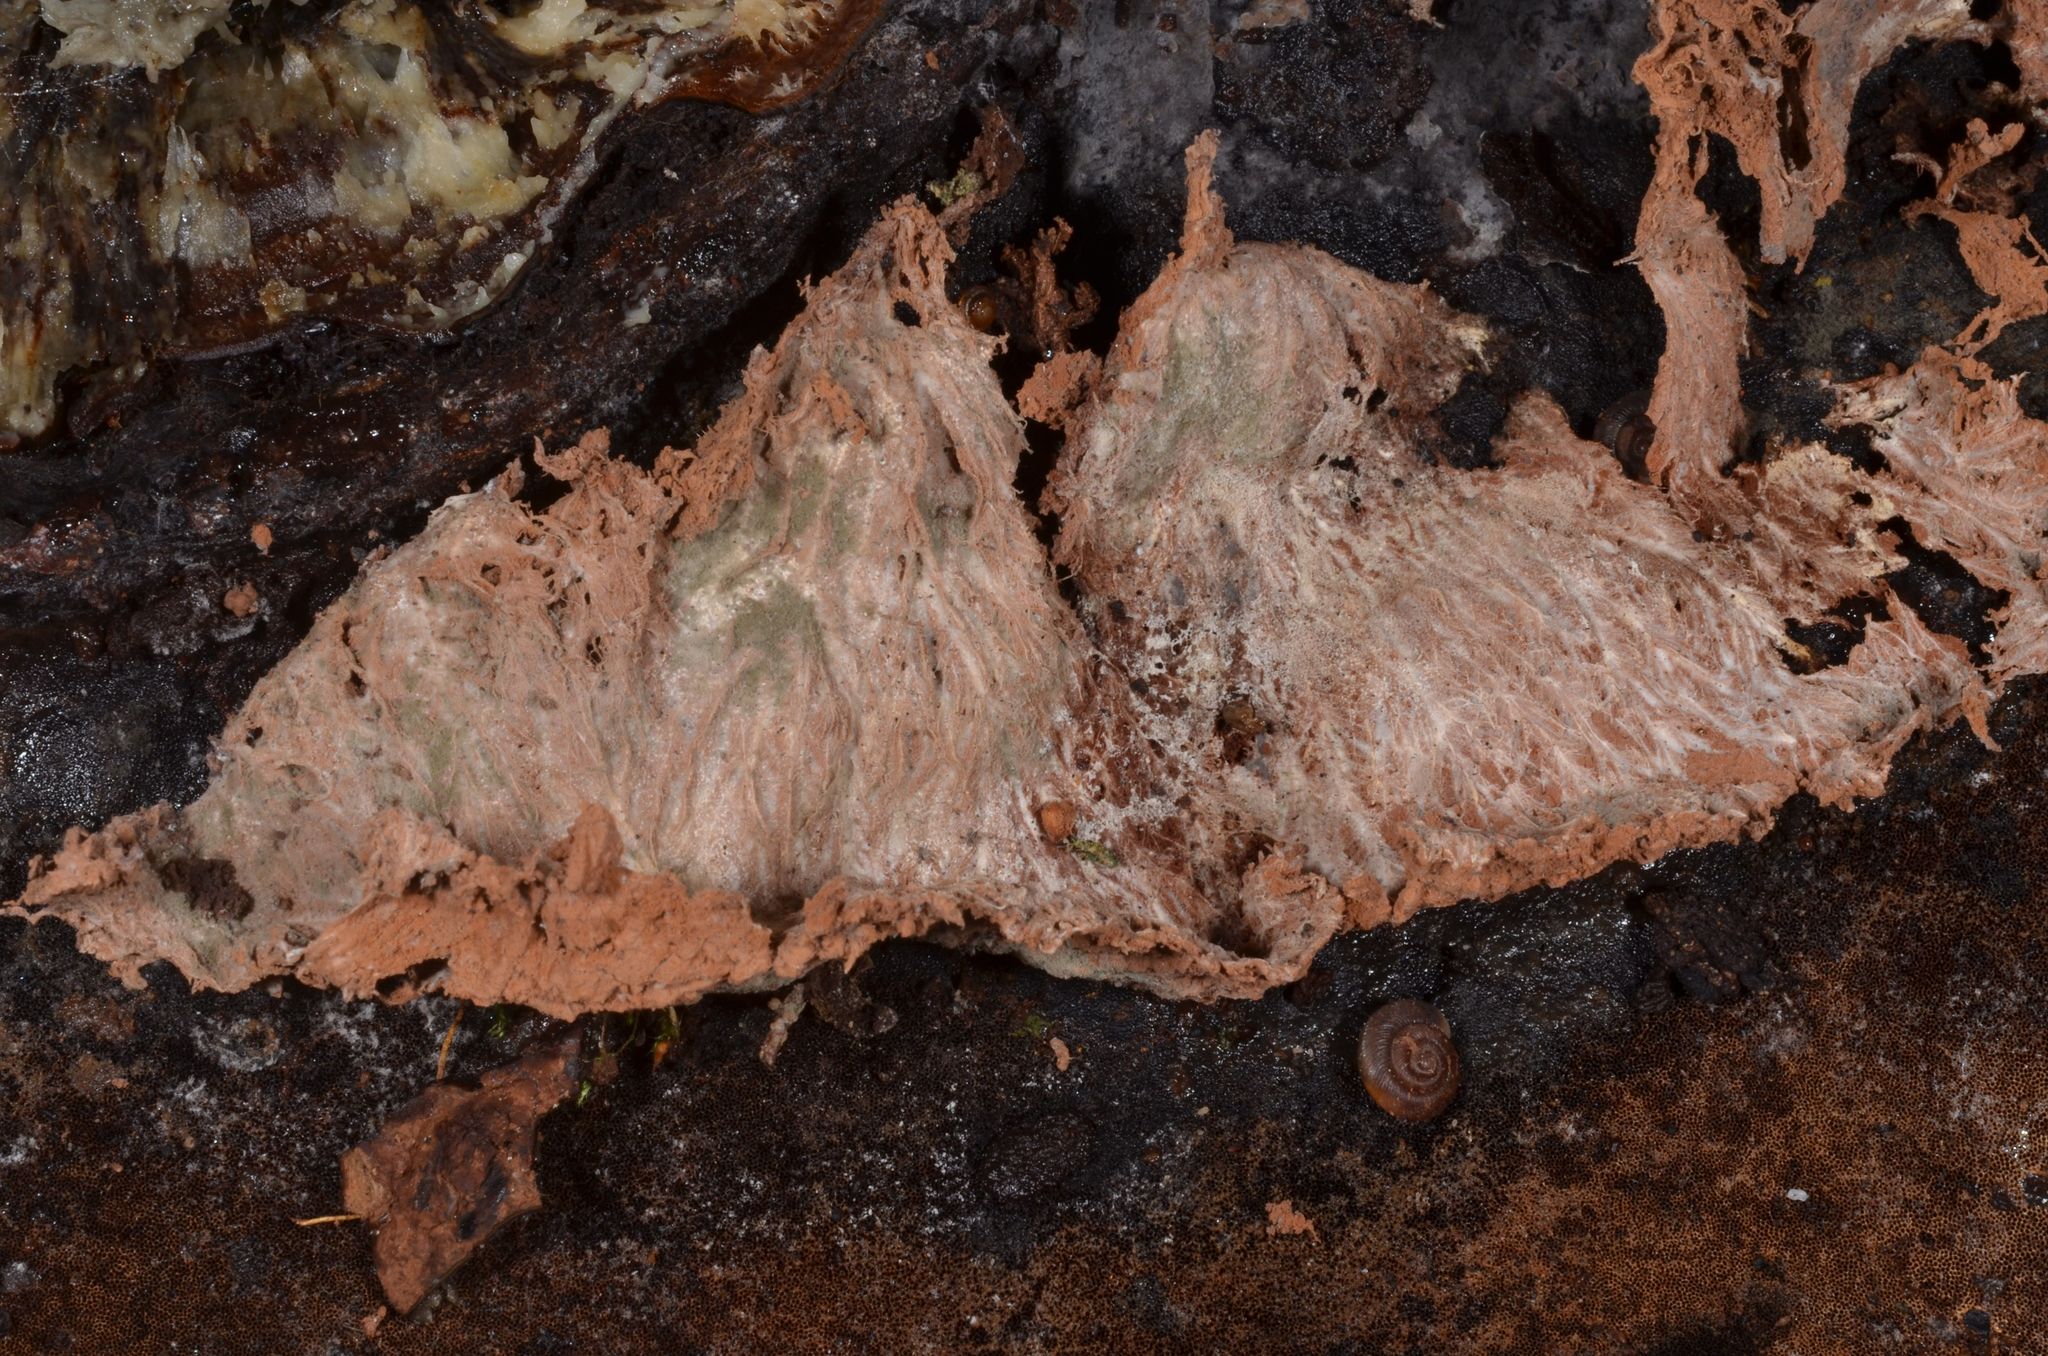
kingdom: Fungi
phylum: Ascomycota
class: Sordariomycetes
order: Hypocreales
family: Hypocreaceae
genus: Sporophagomyces
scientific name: Sporophagomyces chrysostomus
